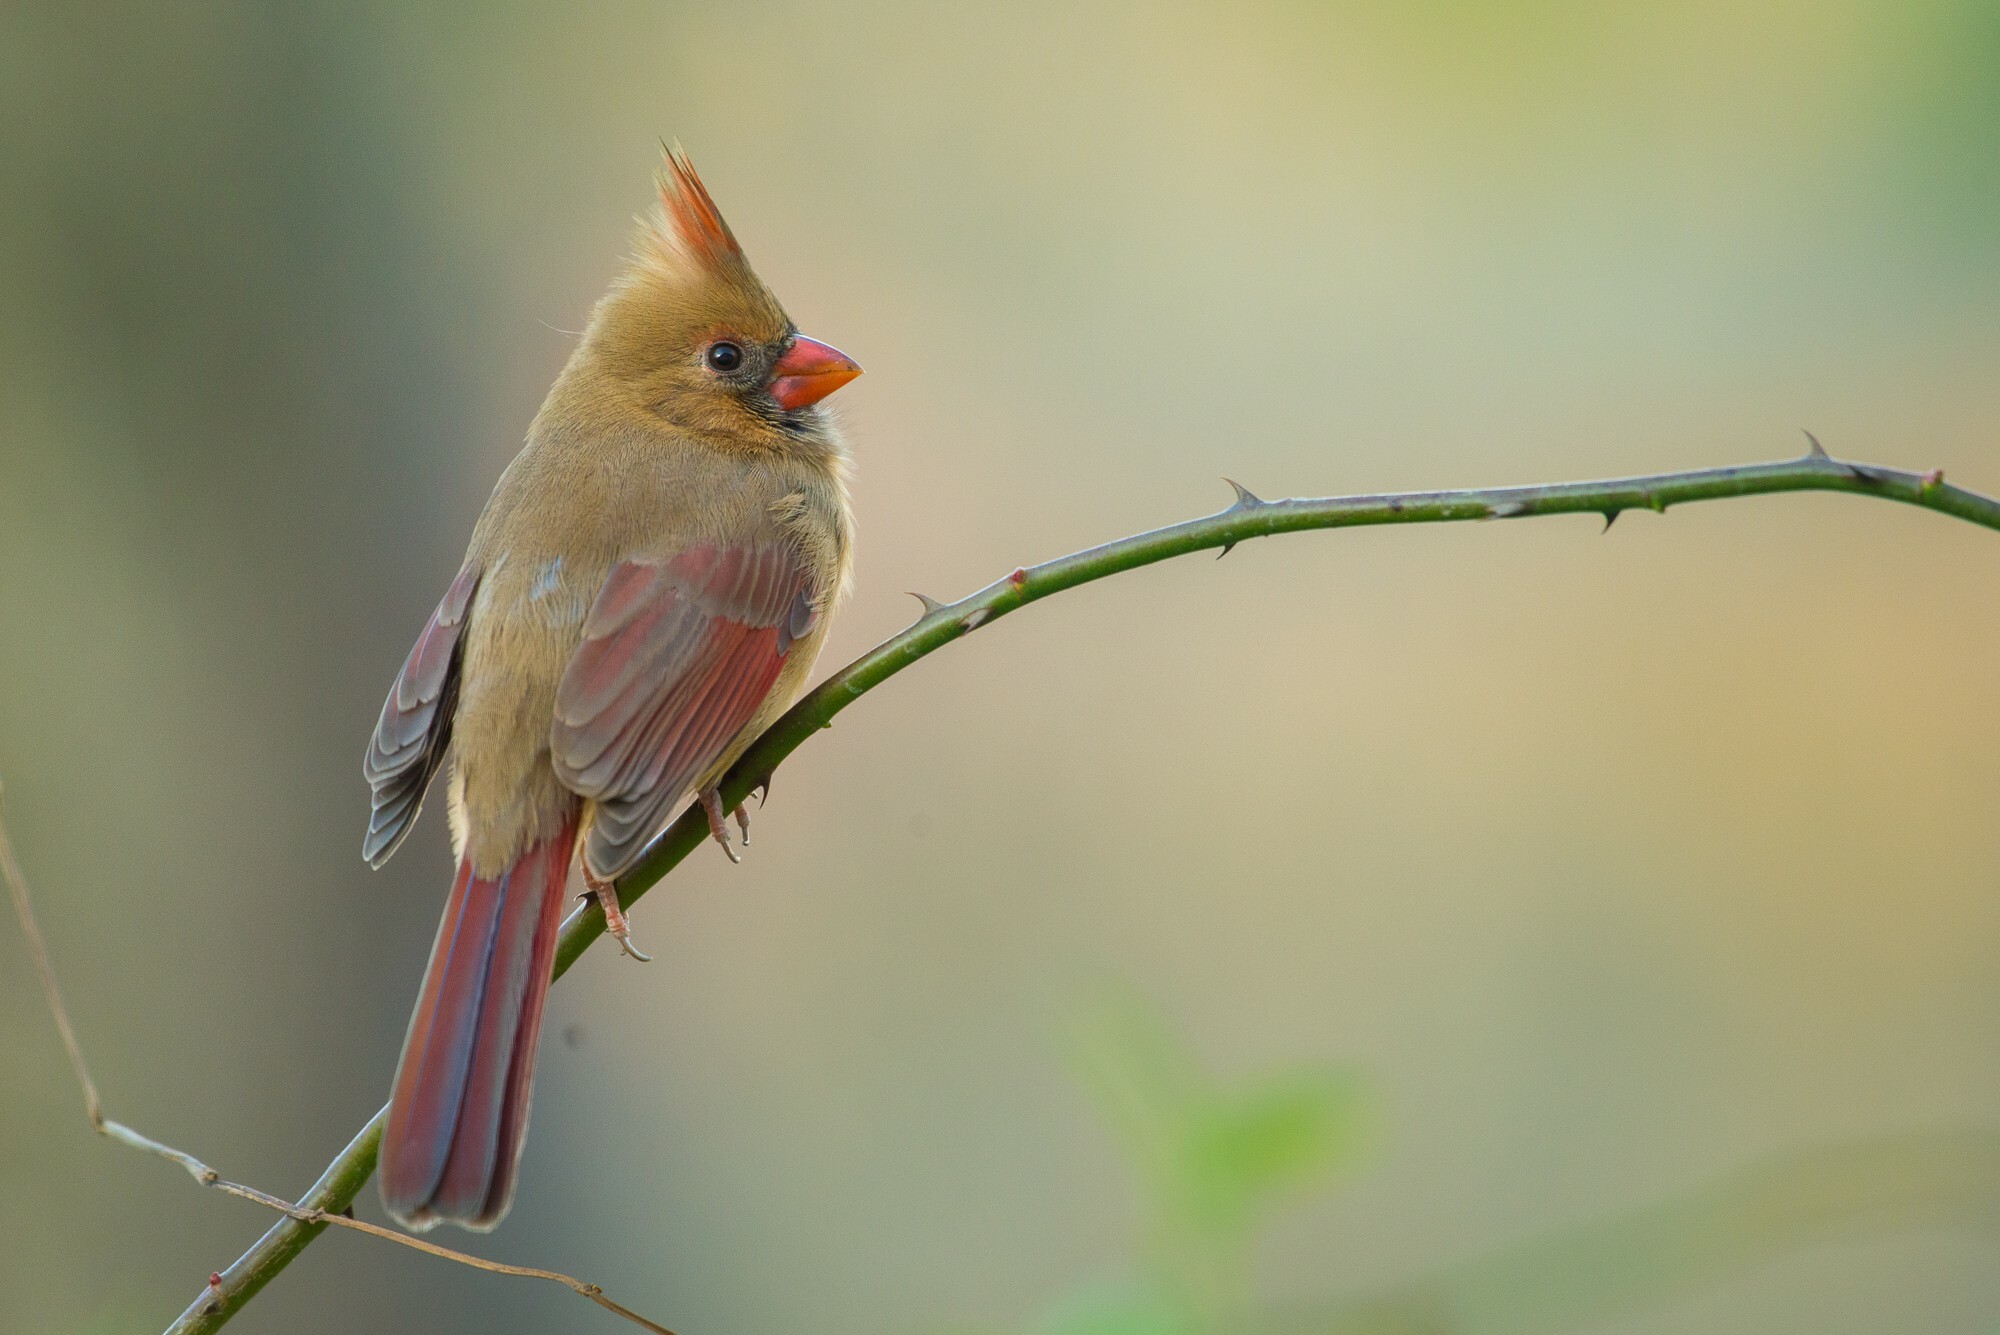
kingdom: Animalia
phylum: Chordata
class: Aves
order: Passeriformes
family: Cardinalidae
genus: Cardinalis
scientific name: Cardinalis cardinalis
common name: Northern cardinal
